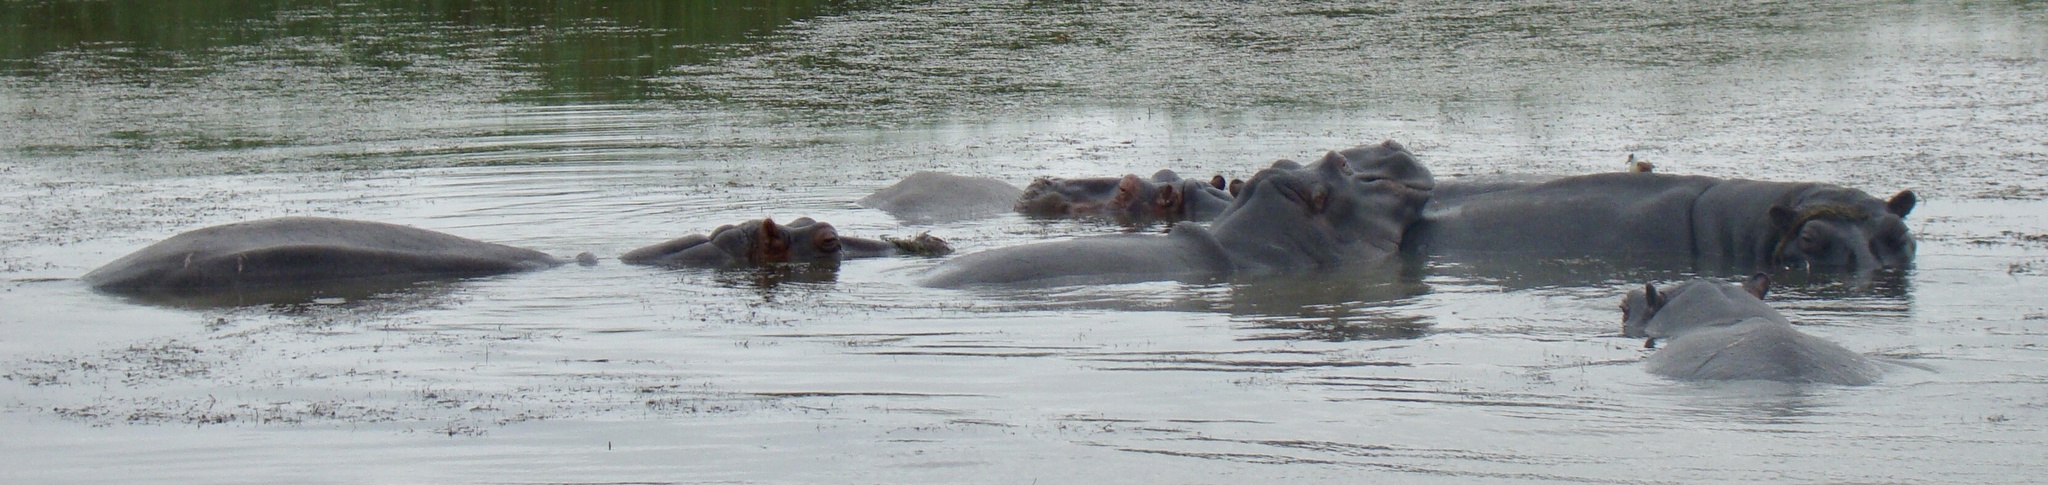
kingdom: Animalia
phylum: Chordata
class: Mammalia
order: Artiodactyla
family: Hippopotamidae
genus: Hippopotamus
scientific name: Hippopotamus amphibius
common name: Common hippopotamus
